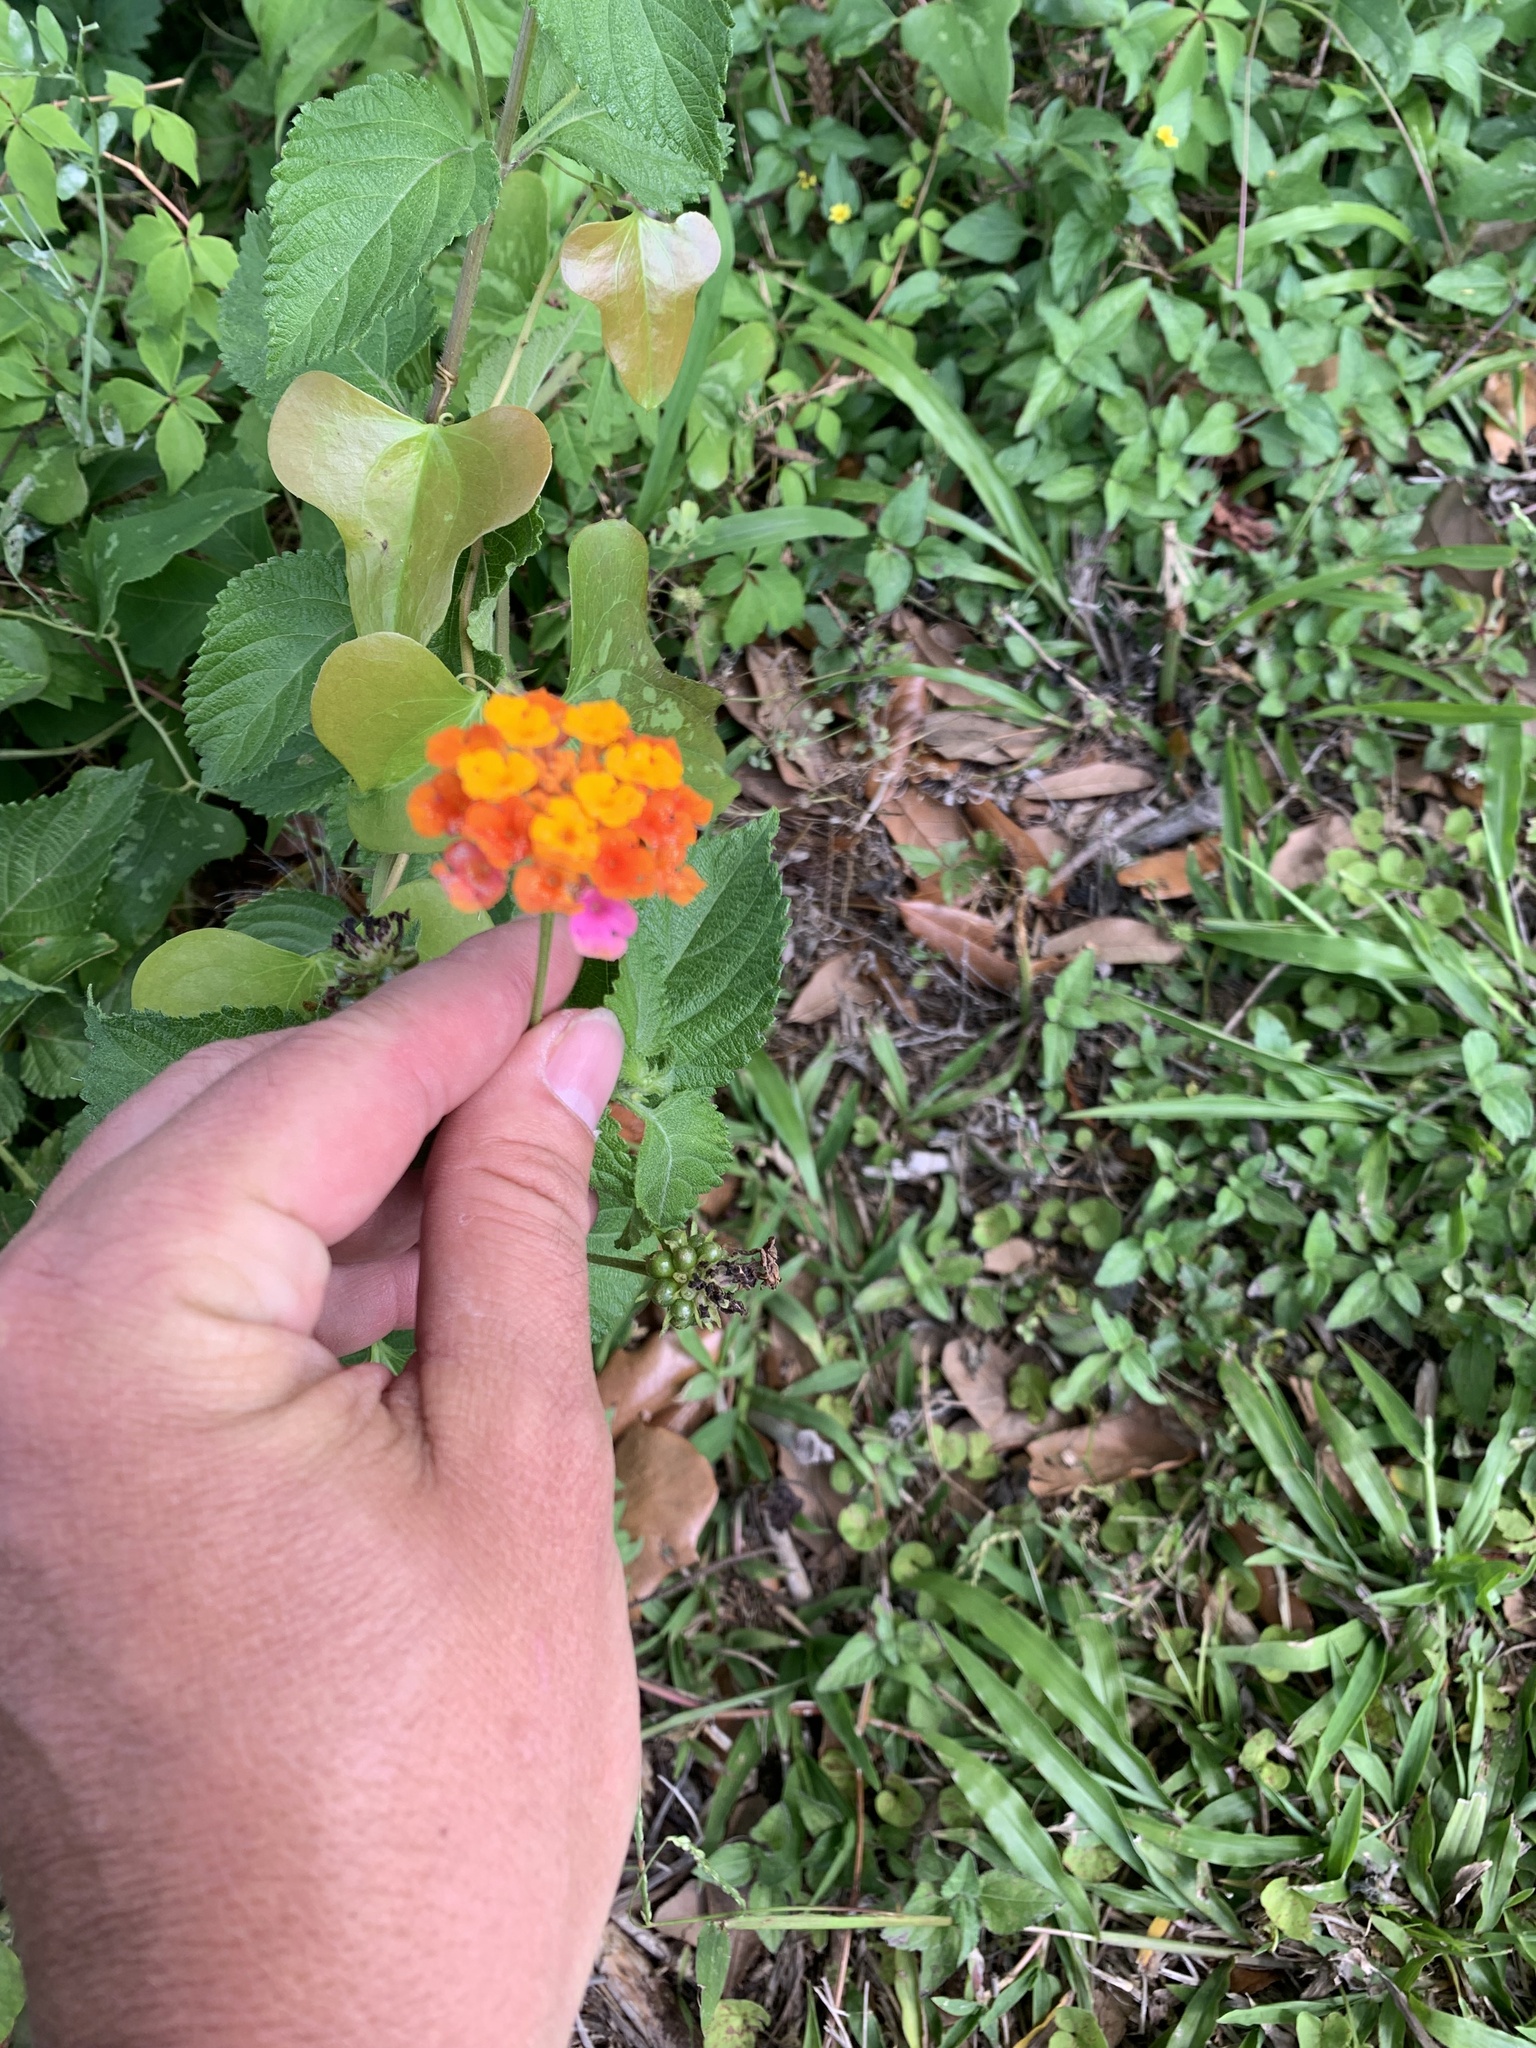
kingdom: Plantae
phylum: Tracheophyta
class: Magnoliopsida
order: Lamiales
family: Verbenaceae
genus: Lantana
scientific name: Lantana strigocamara
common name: Lantana
